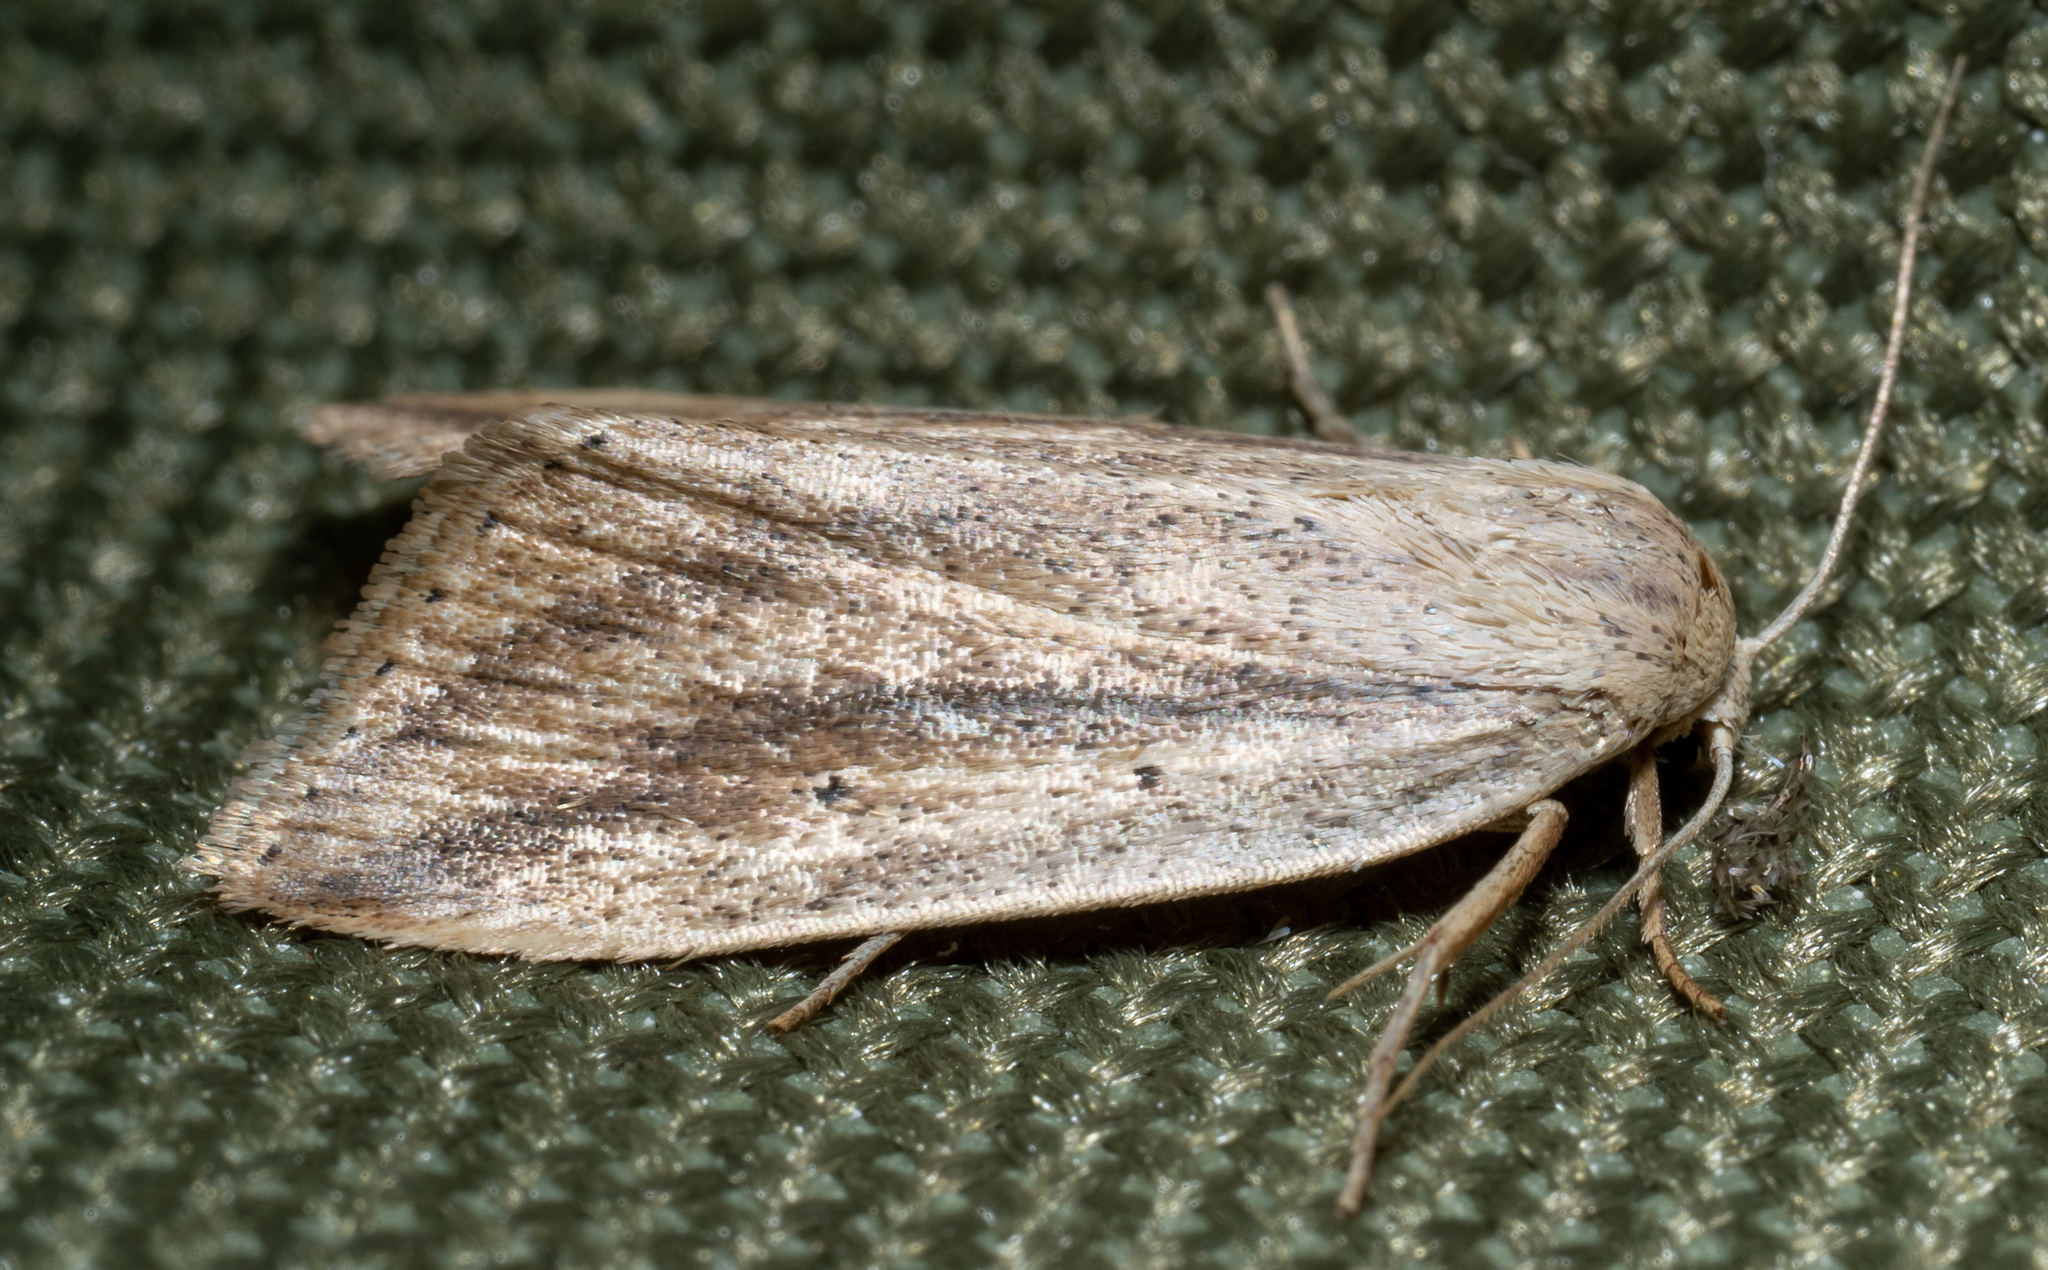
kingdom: Animalia
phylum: Arthropoda
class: Insecta
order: Lepidoptera
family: Noctuidae
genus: Amolita
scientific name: Amolita fessa
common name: Feeble grass moth
